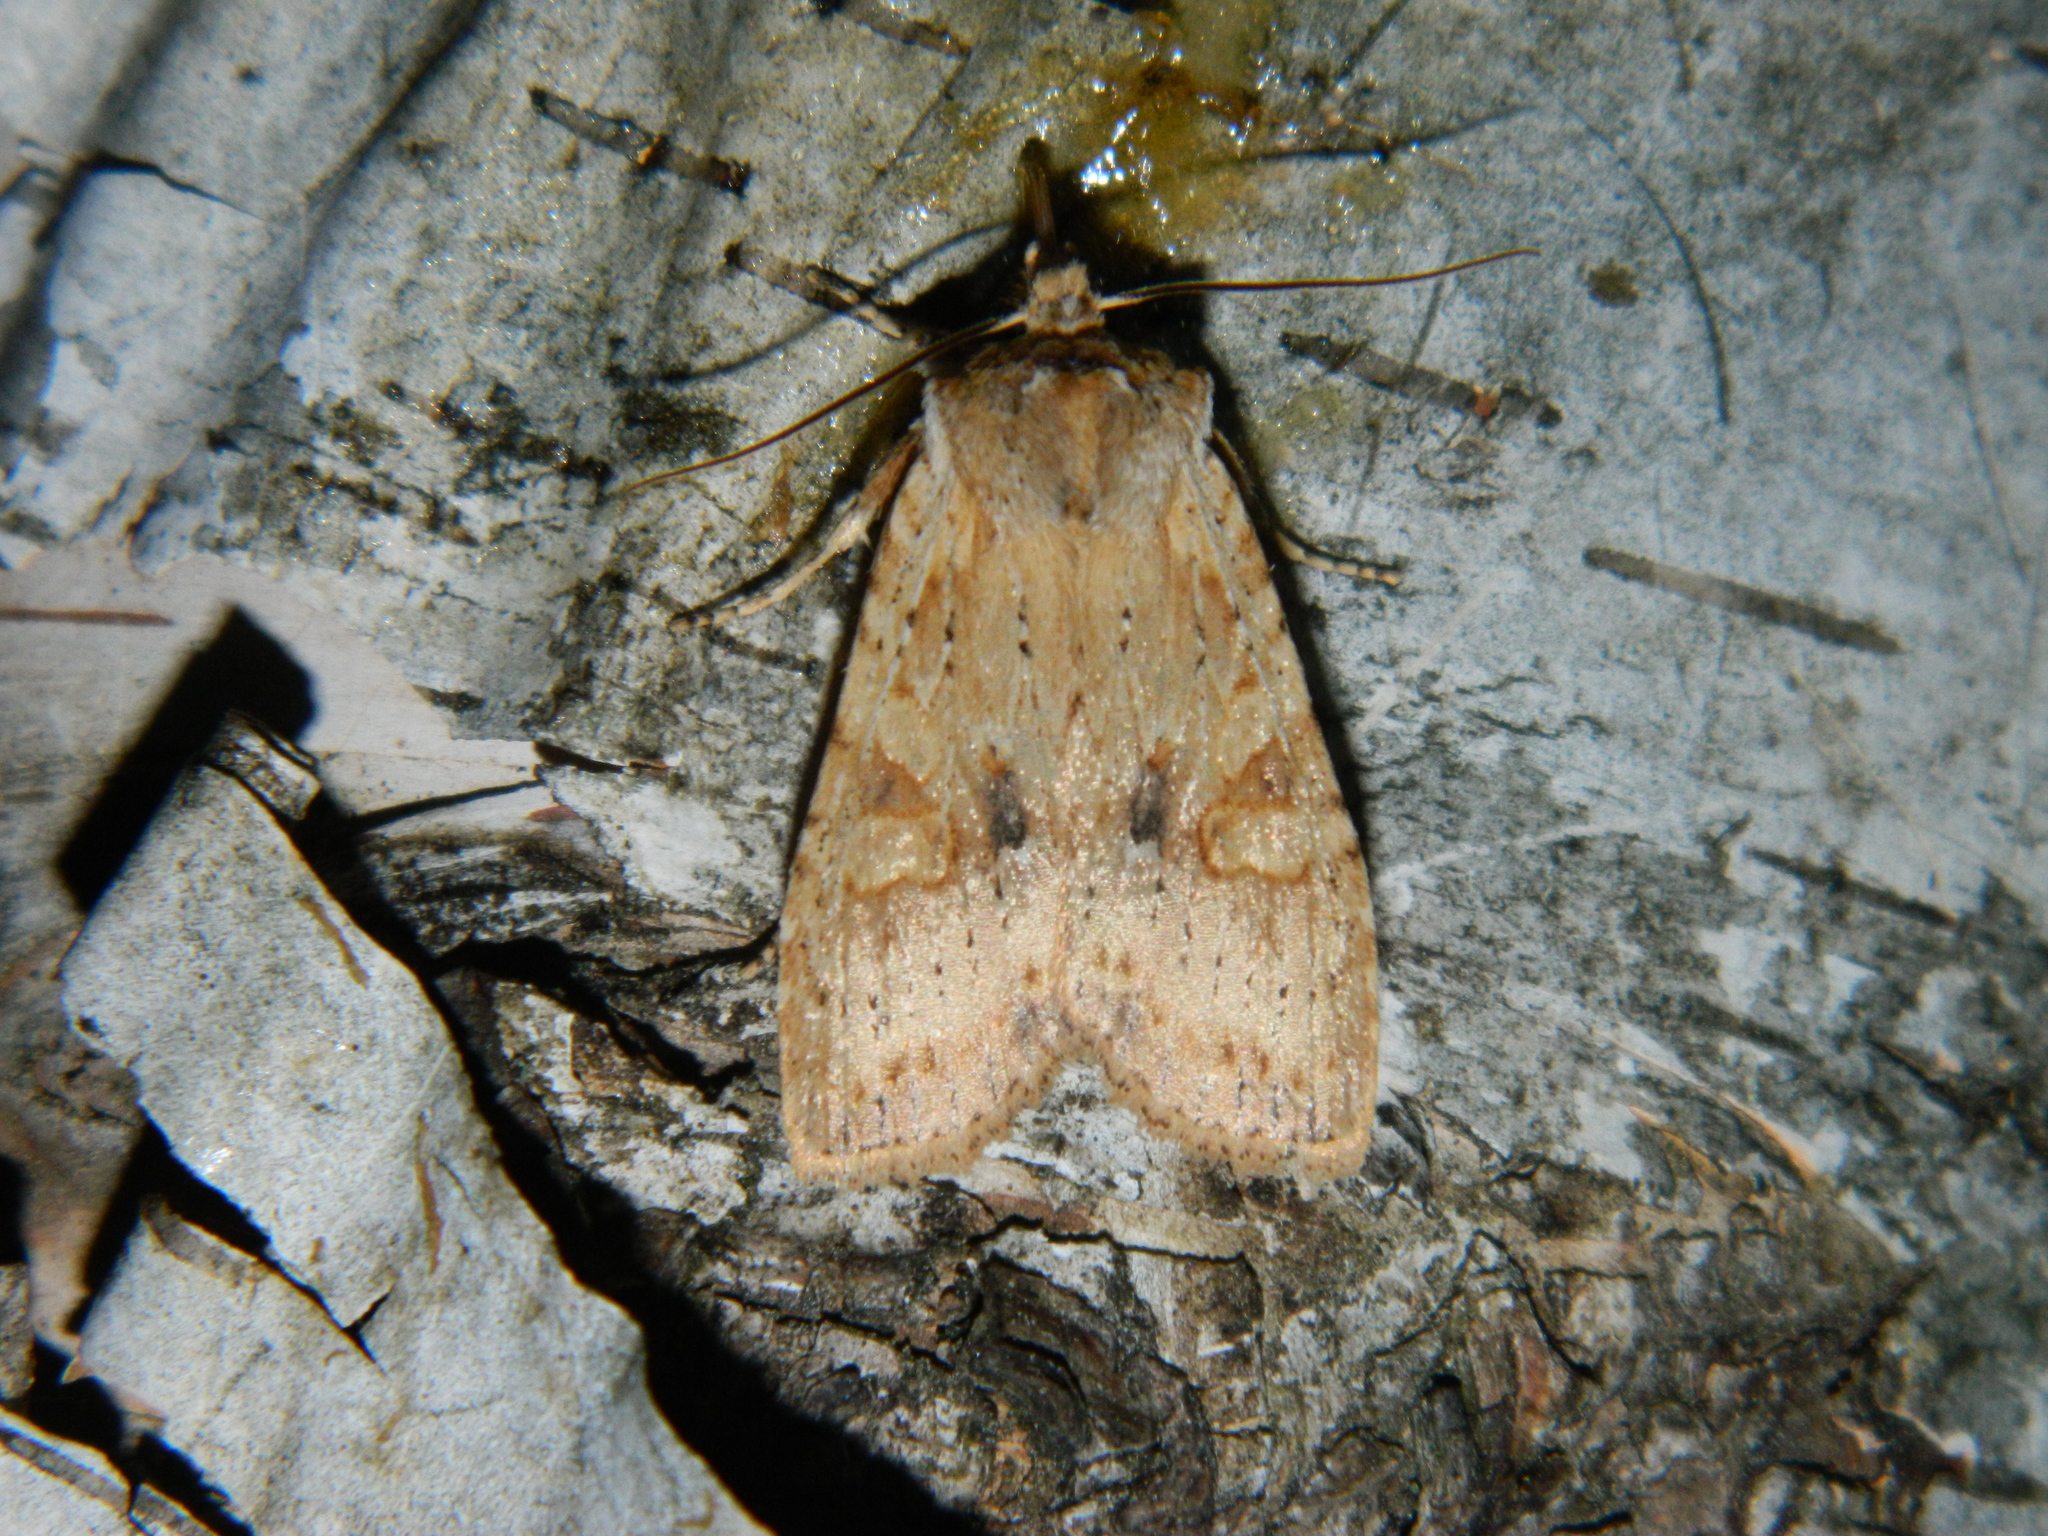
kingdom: Animalia
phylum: Arthropoda
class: Insecta
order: Lepidoptera
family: Noctuidae
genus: Lithophane
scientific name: Lithophane innominata
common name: Nameless pinion moth
